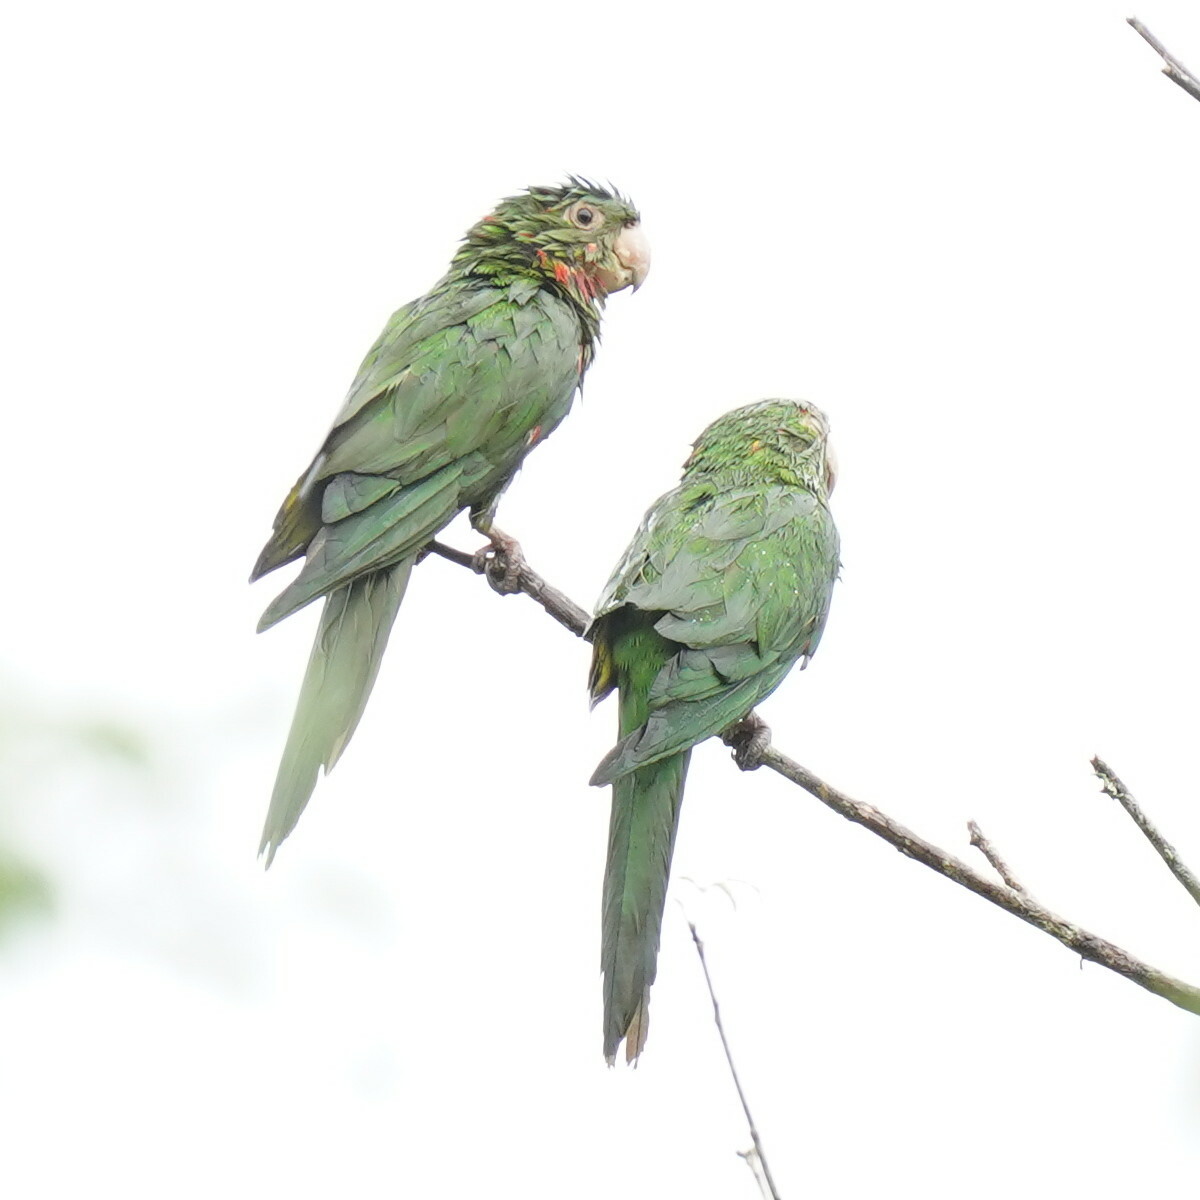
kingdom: Animalia
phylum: Chordata
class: Aves
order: Psittaciformes
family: Psittacidae
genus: Aratinga
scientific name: Aratinga leucophthalma
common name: White-eyed parakeet
